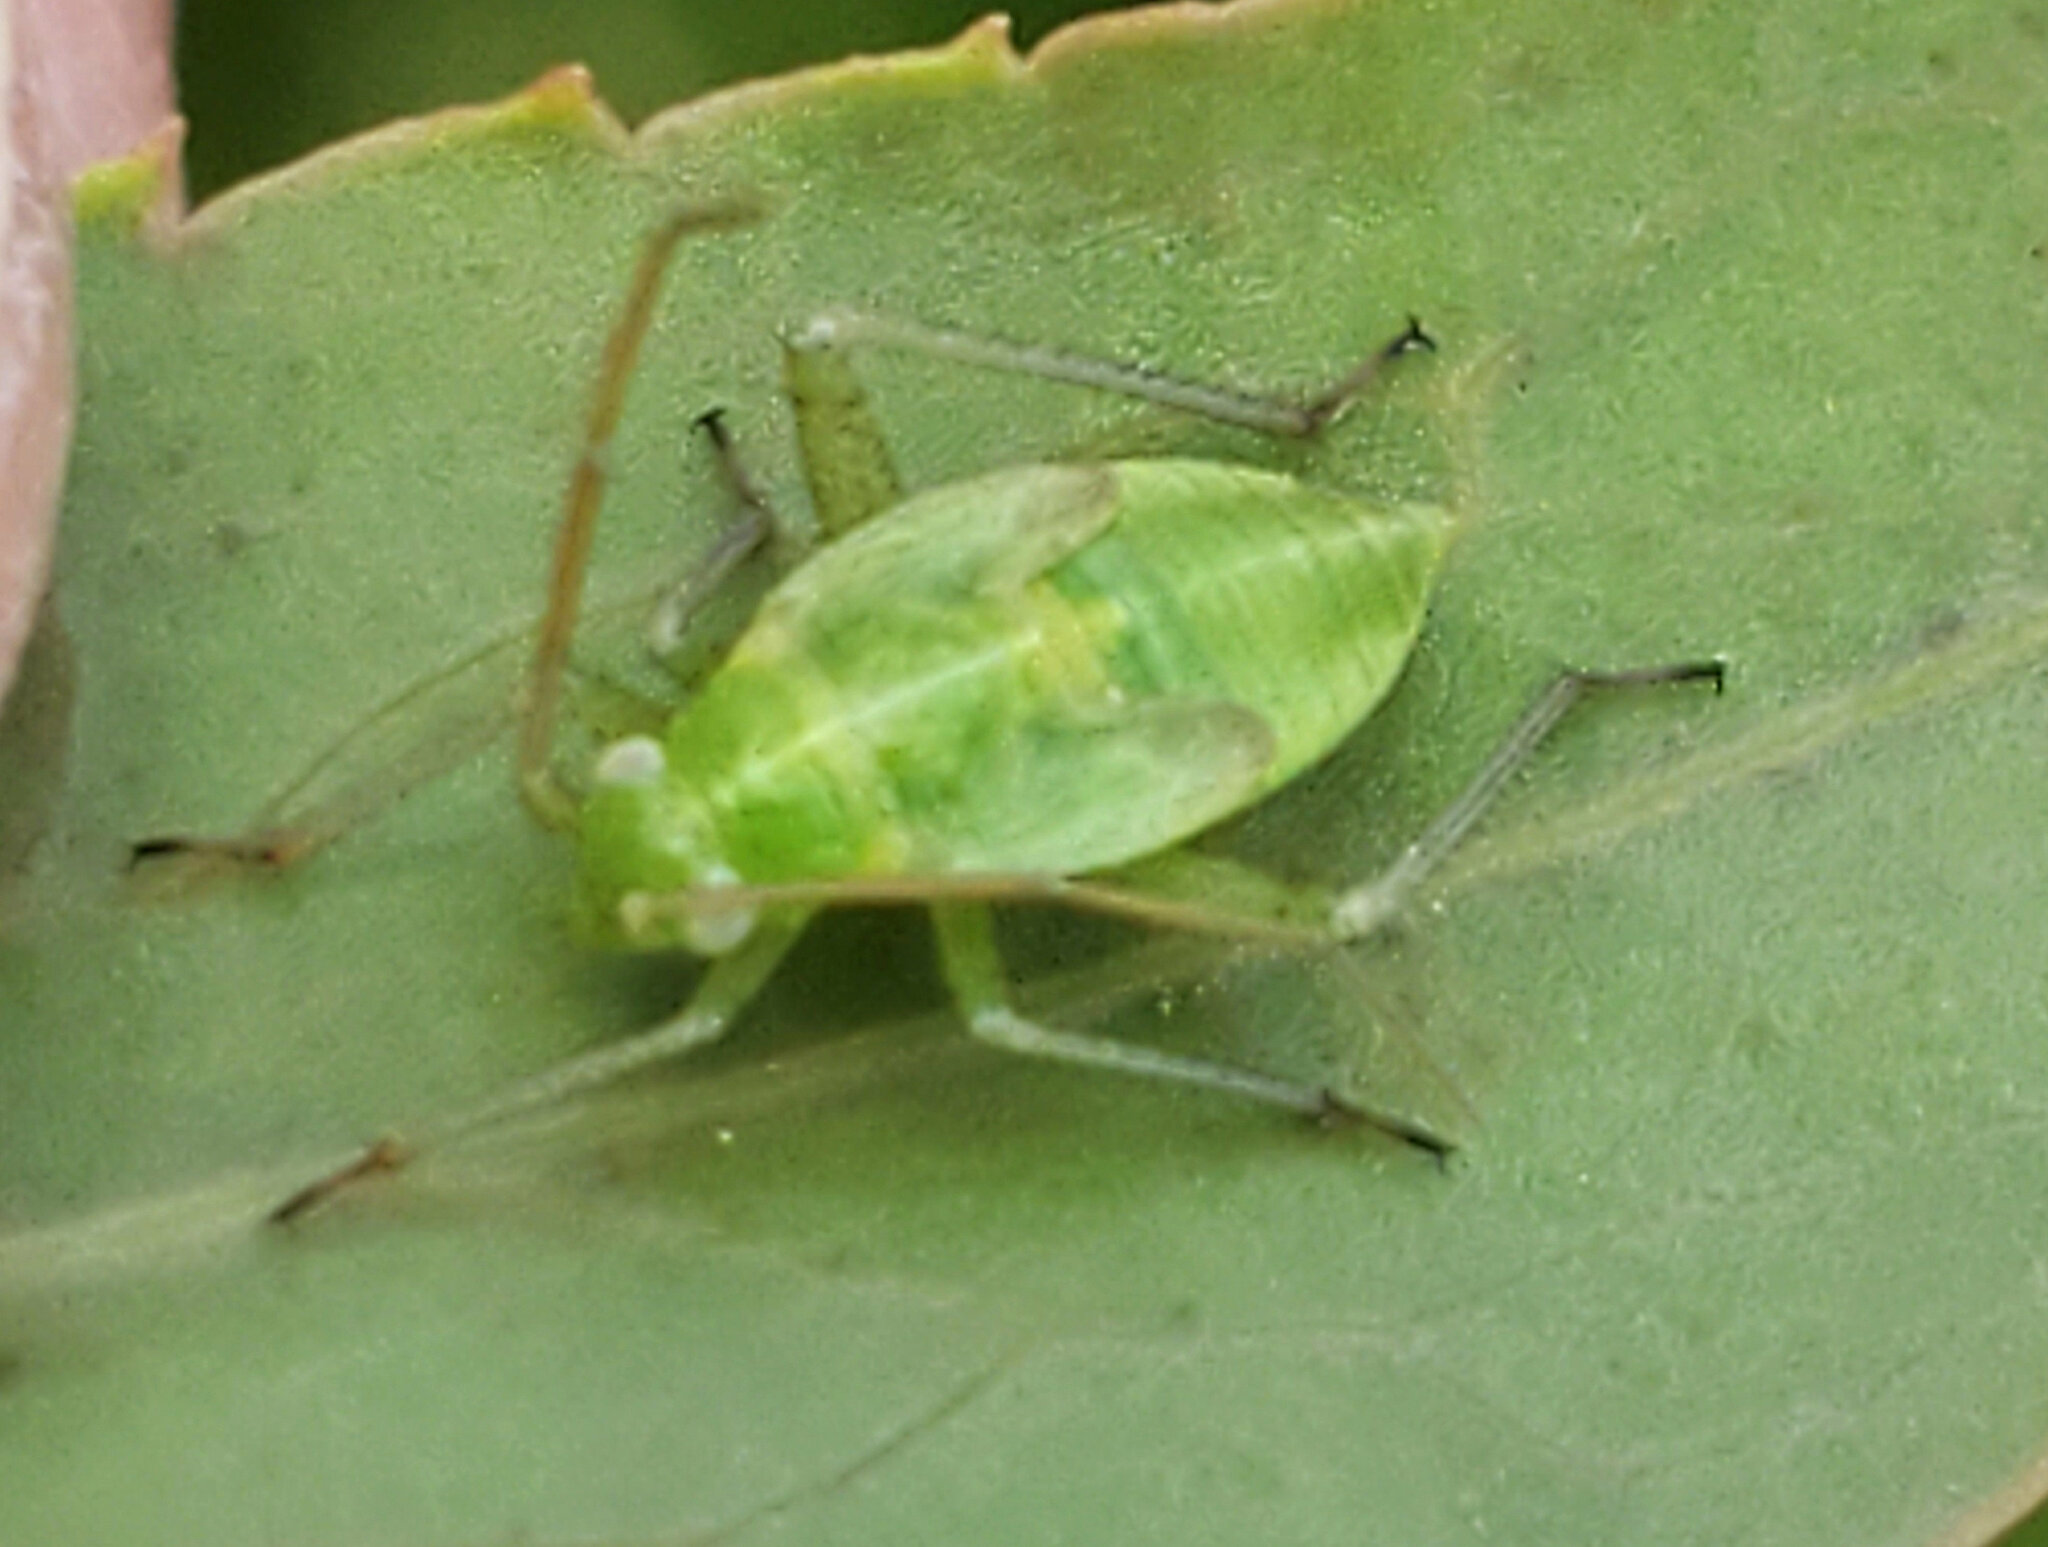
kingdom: Animalia
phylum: Arthropoda
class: Insecta
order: Hemiptera
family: Miridae
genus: Closterotomus
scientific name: Closterotomus norvegicus
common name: Plant bug
